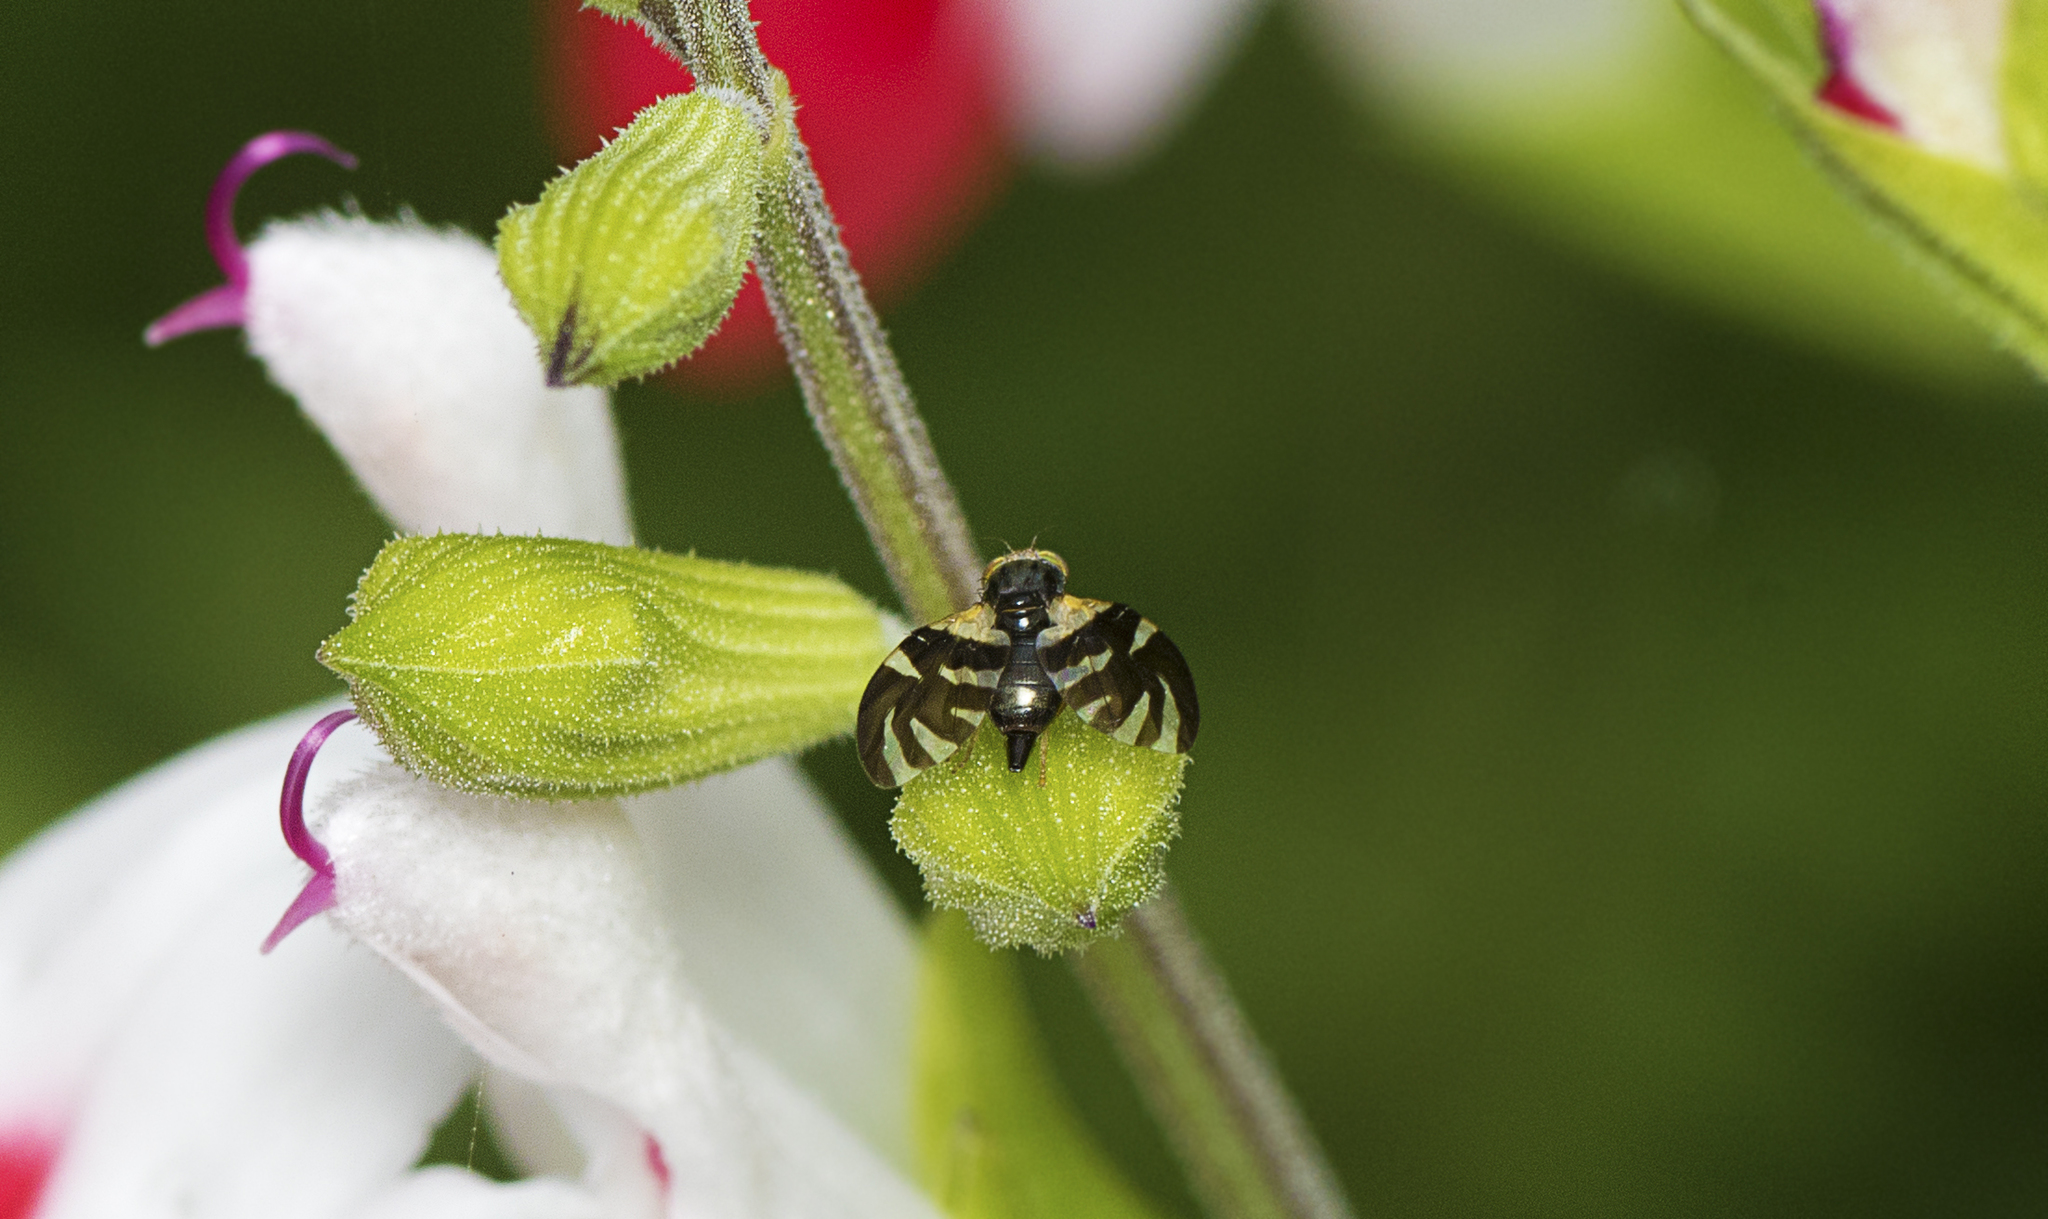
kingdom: Animalia
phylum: Arthropoda
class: Insecta
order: Diptera
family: Tephritidae
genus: Sphaeniscus
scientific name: Sphaeniscus atilius
